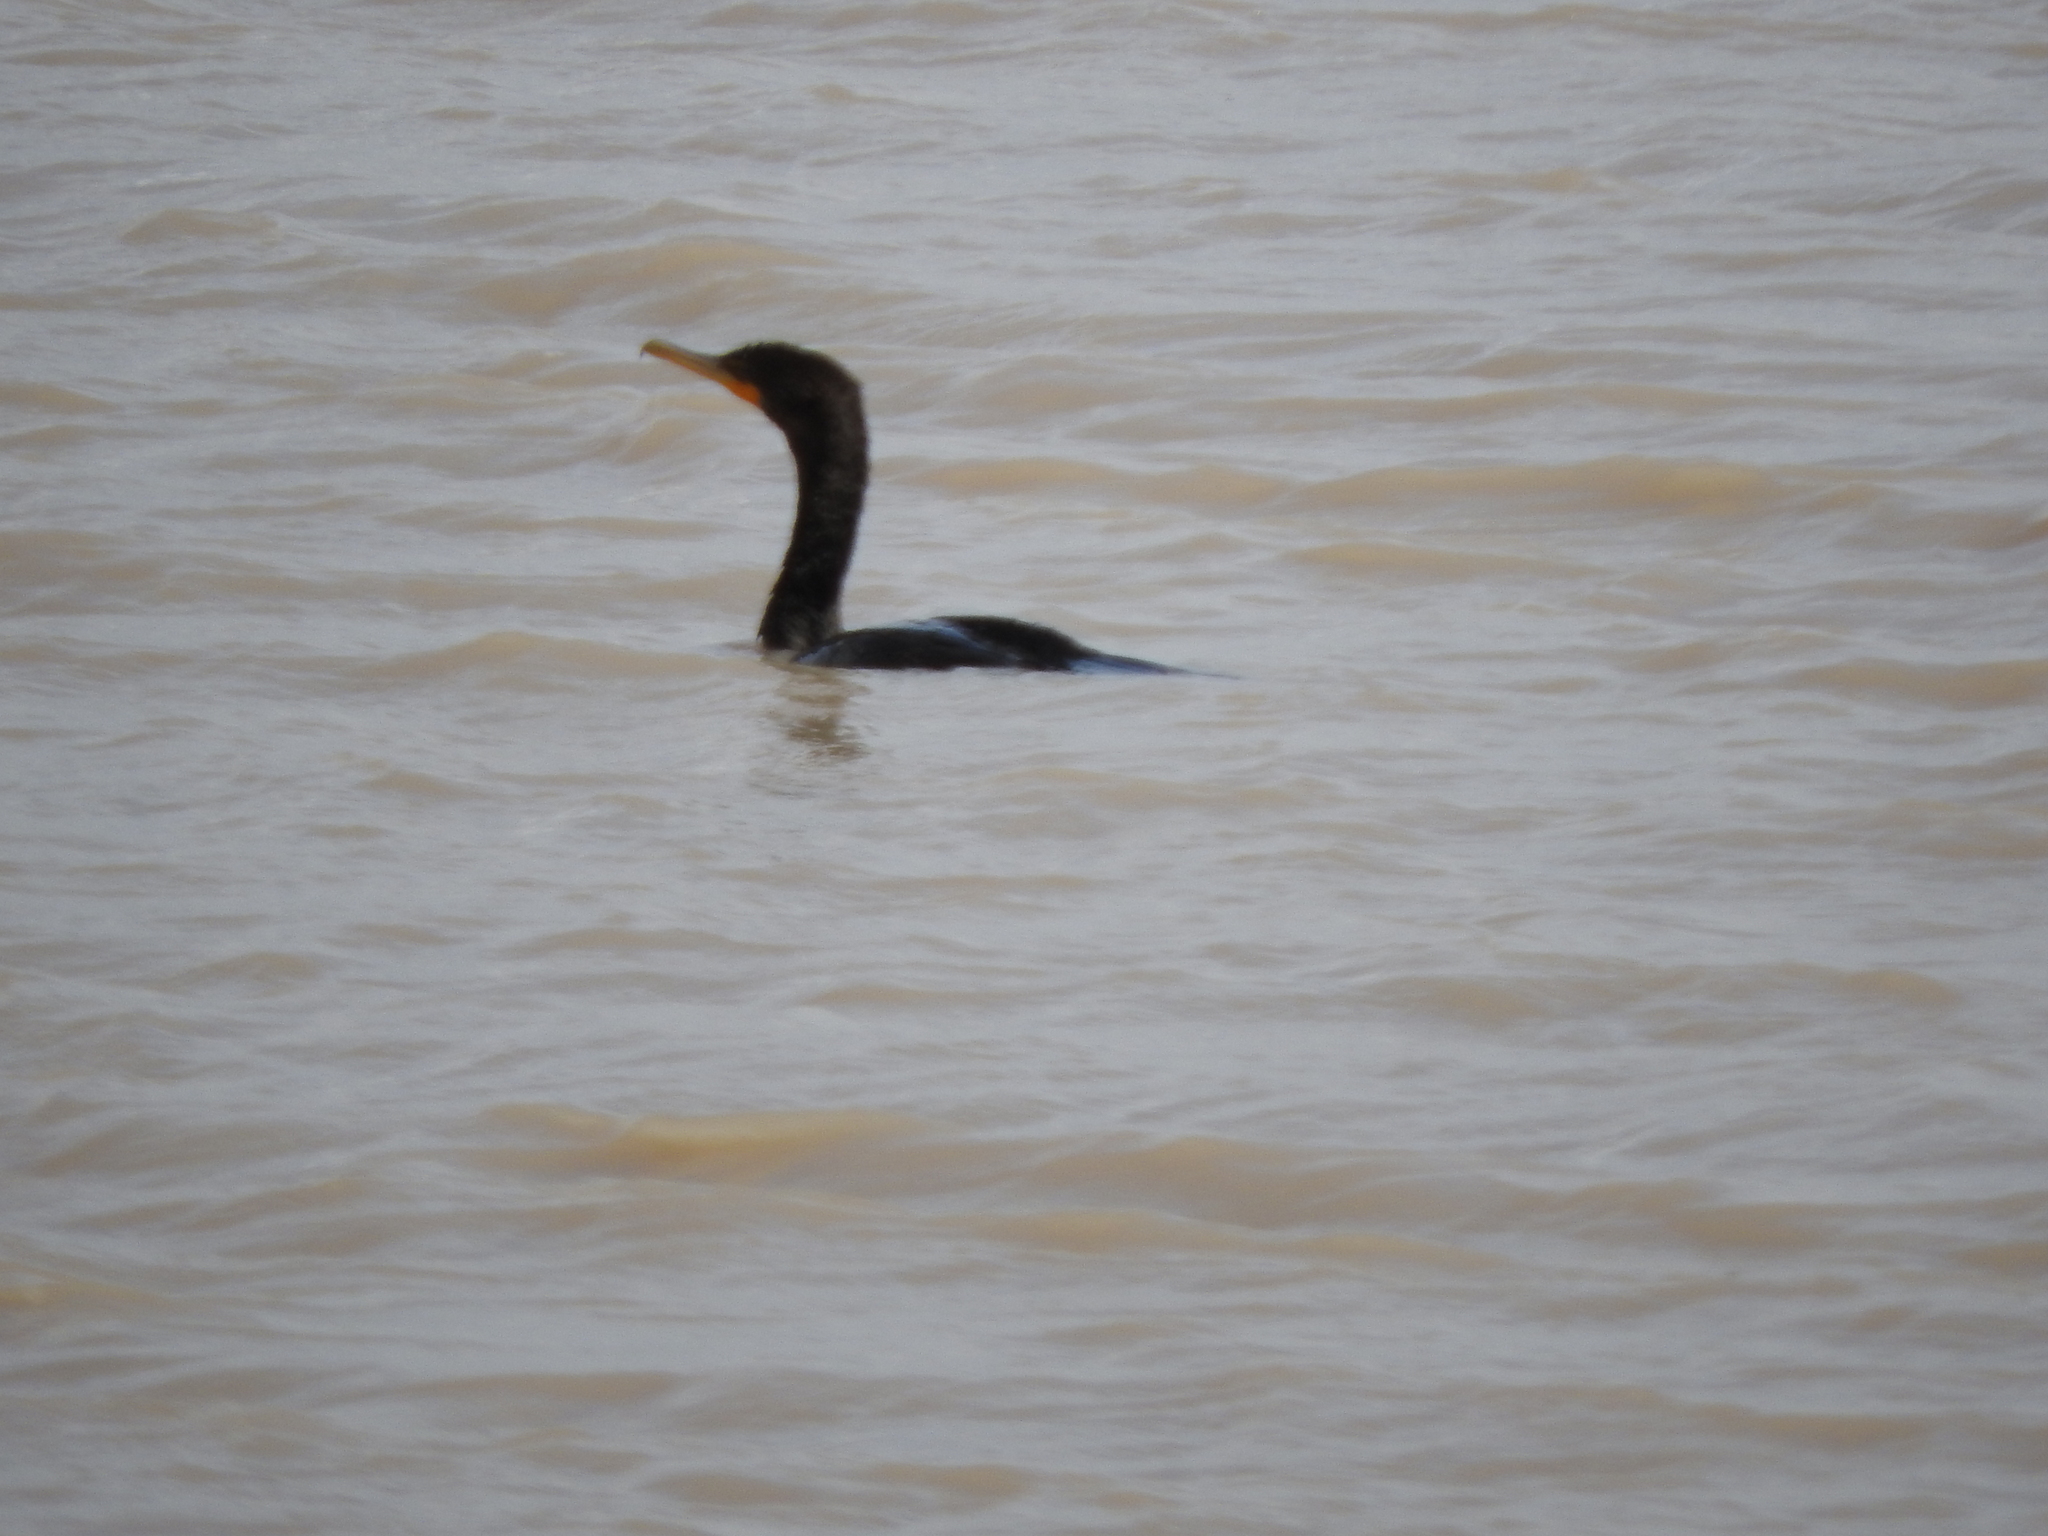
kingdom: Animalia
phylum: Chordata
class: Aves
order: Suliformes
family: Phalacrocoracidae
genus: Phalacrocorax
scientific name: Phalacrocorax brasilianus
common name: Neotropic cormorant
